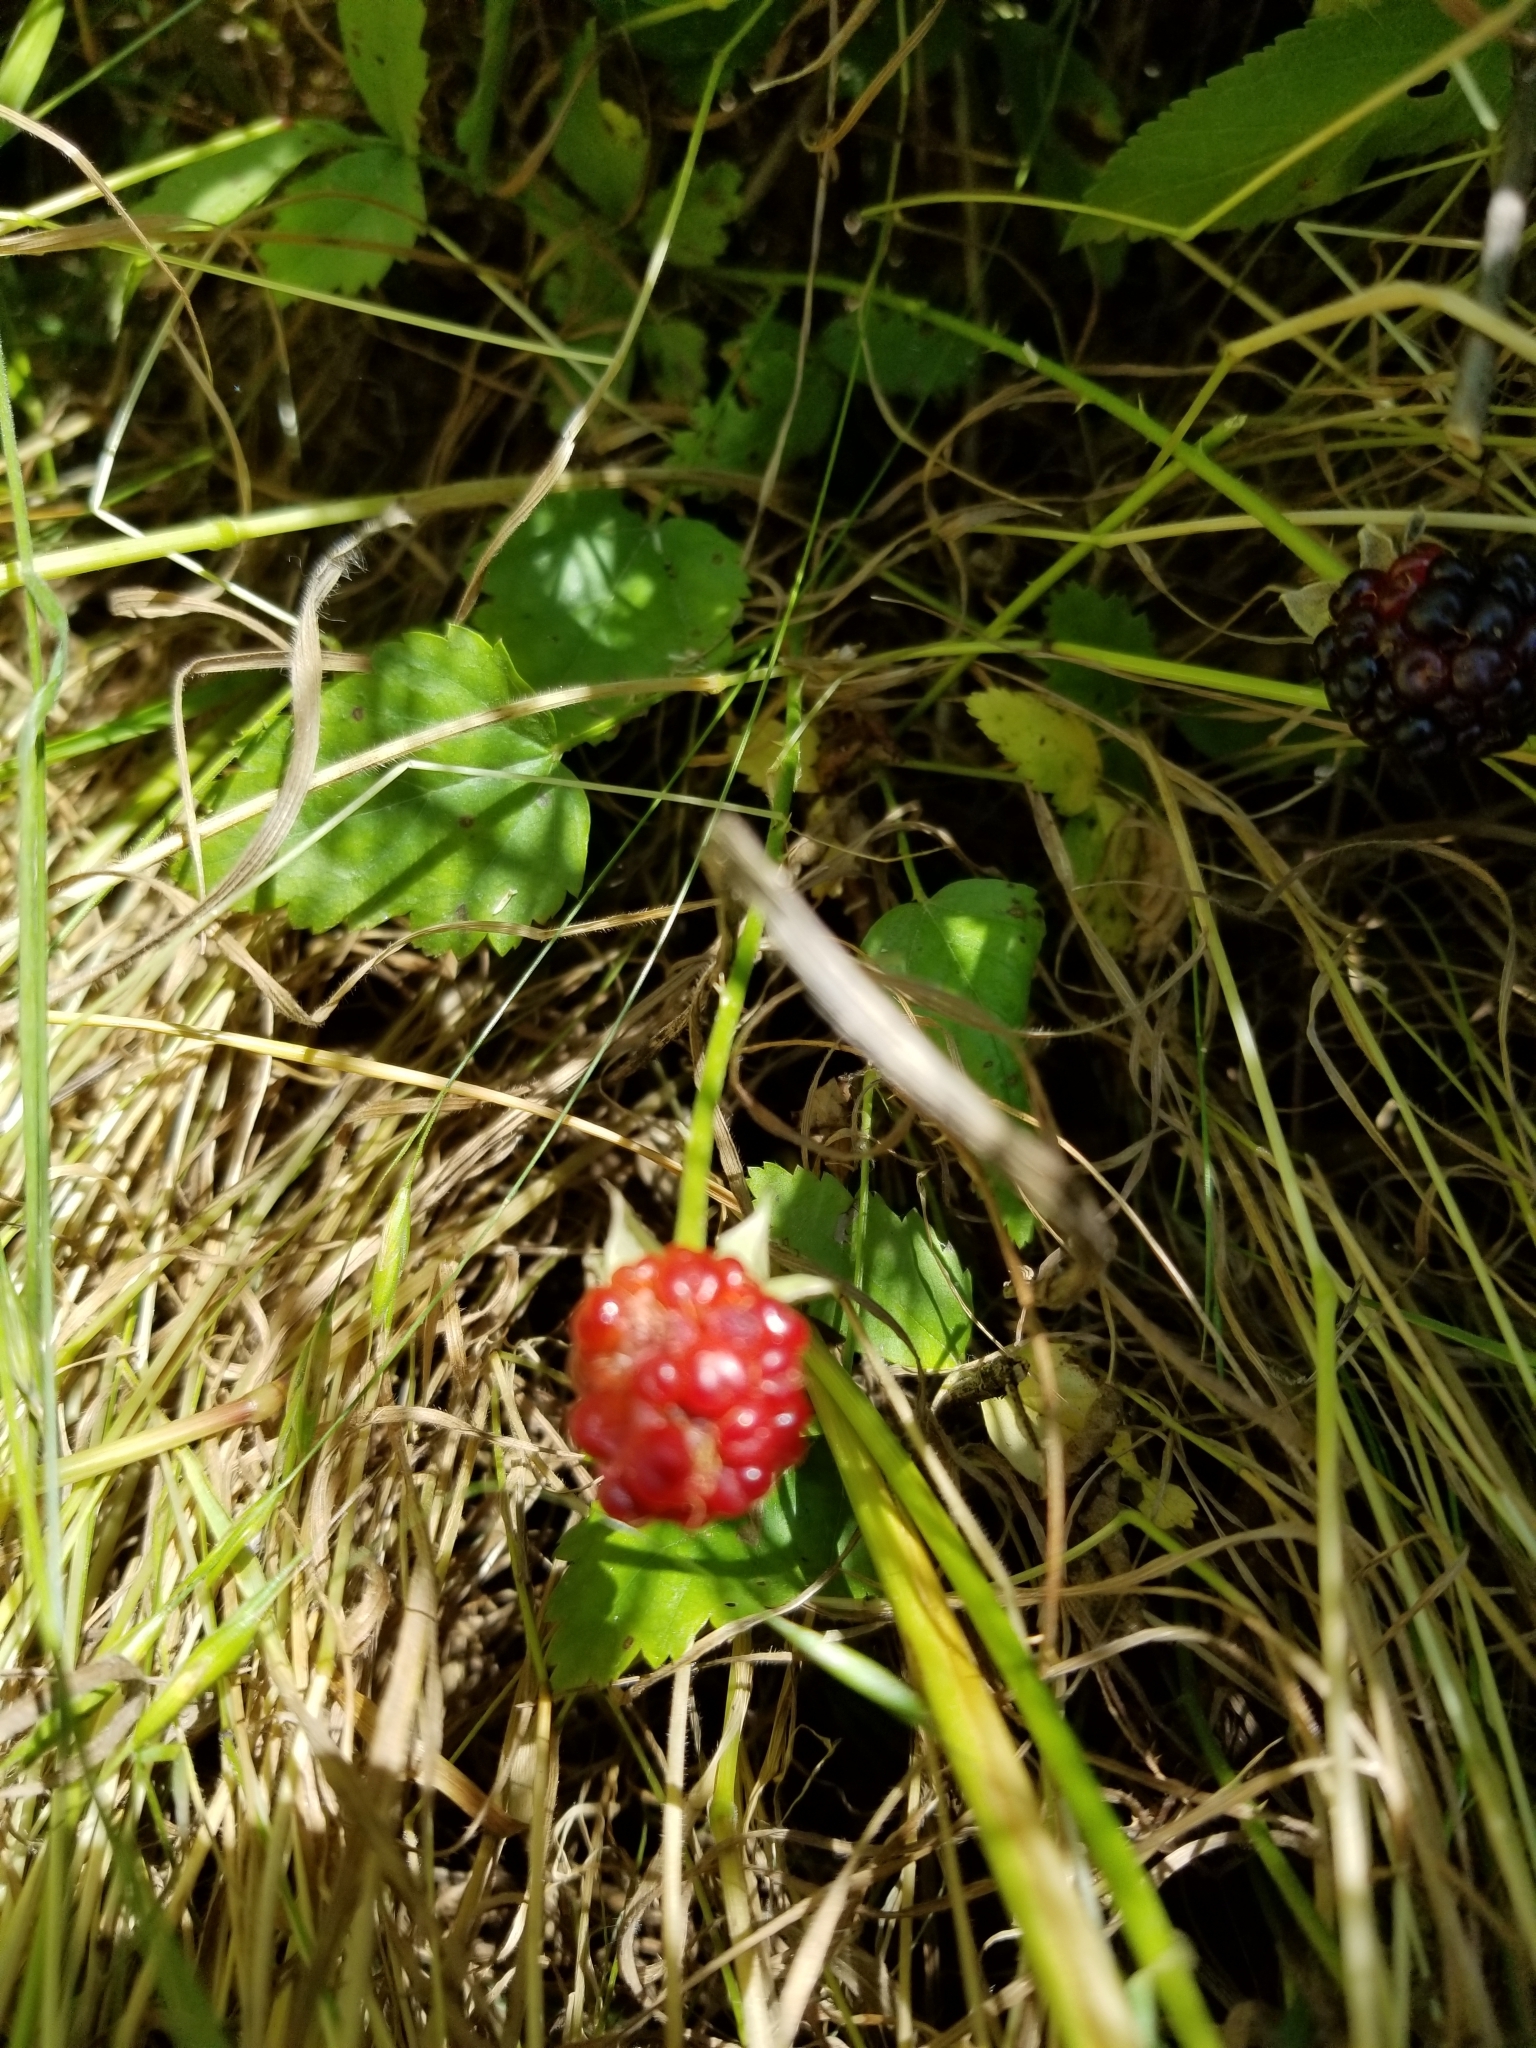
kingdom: Plantae
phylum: Tracheophyta
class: Magnoliopsida
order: Rosales
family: Rosaceae
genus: Rubus
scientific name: Rubus trivialis
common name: Southern dewberry
